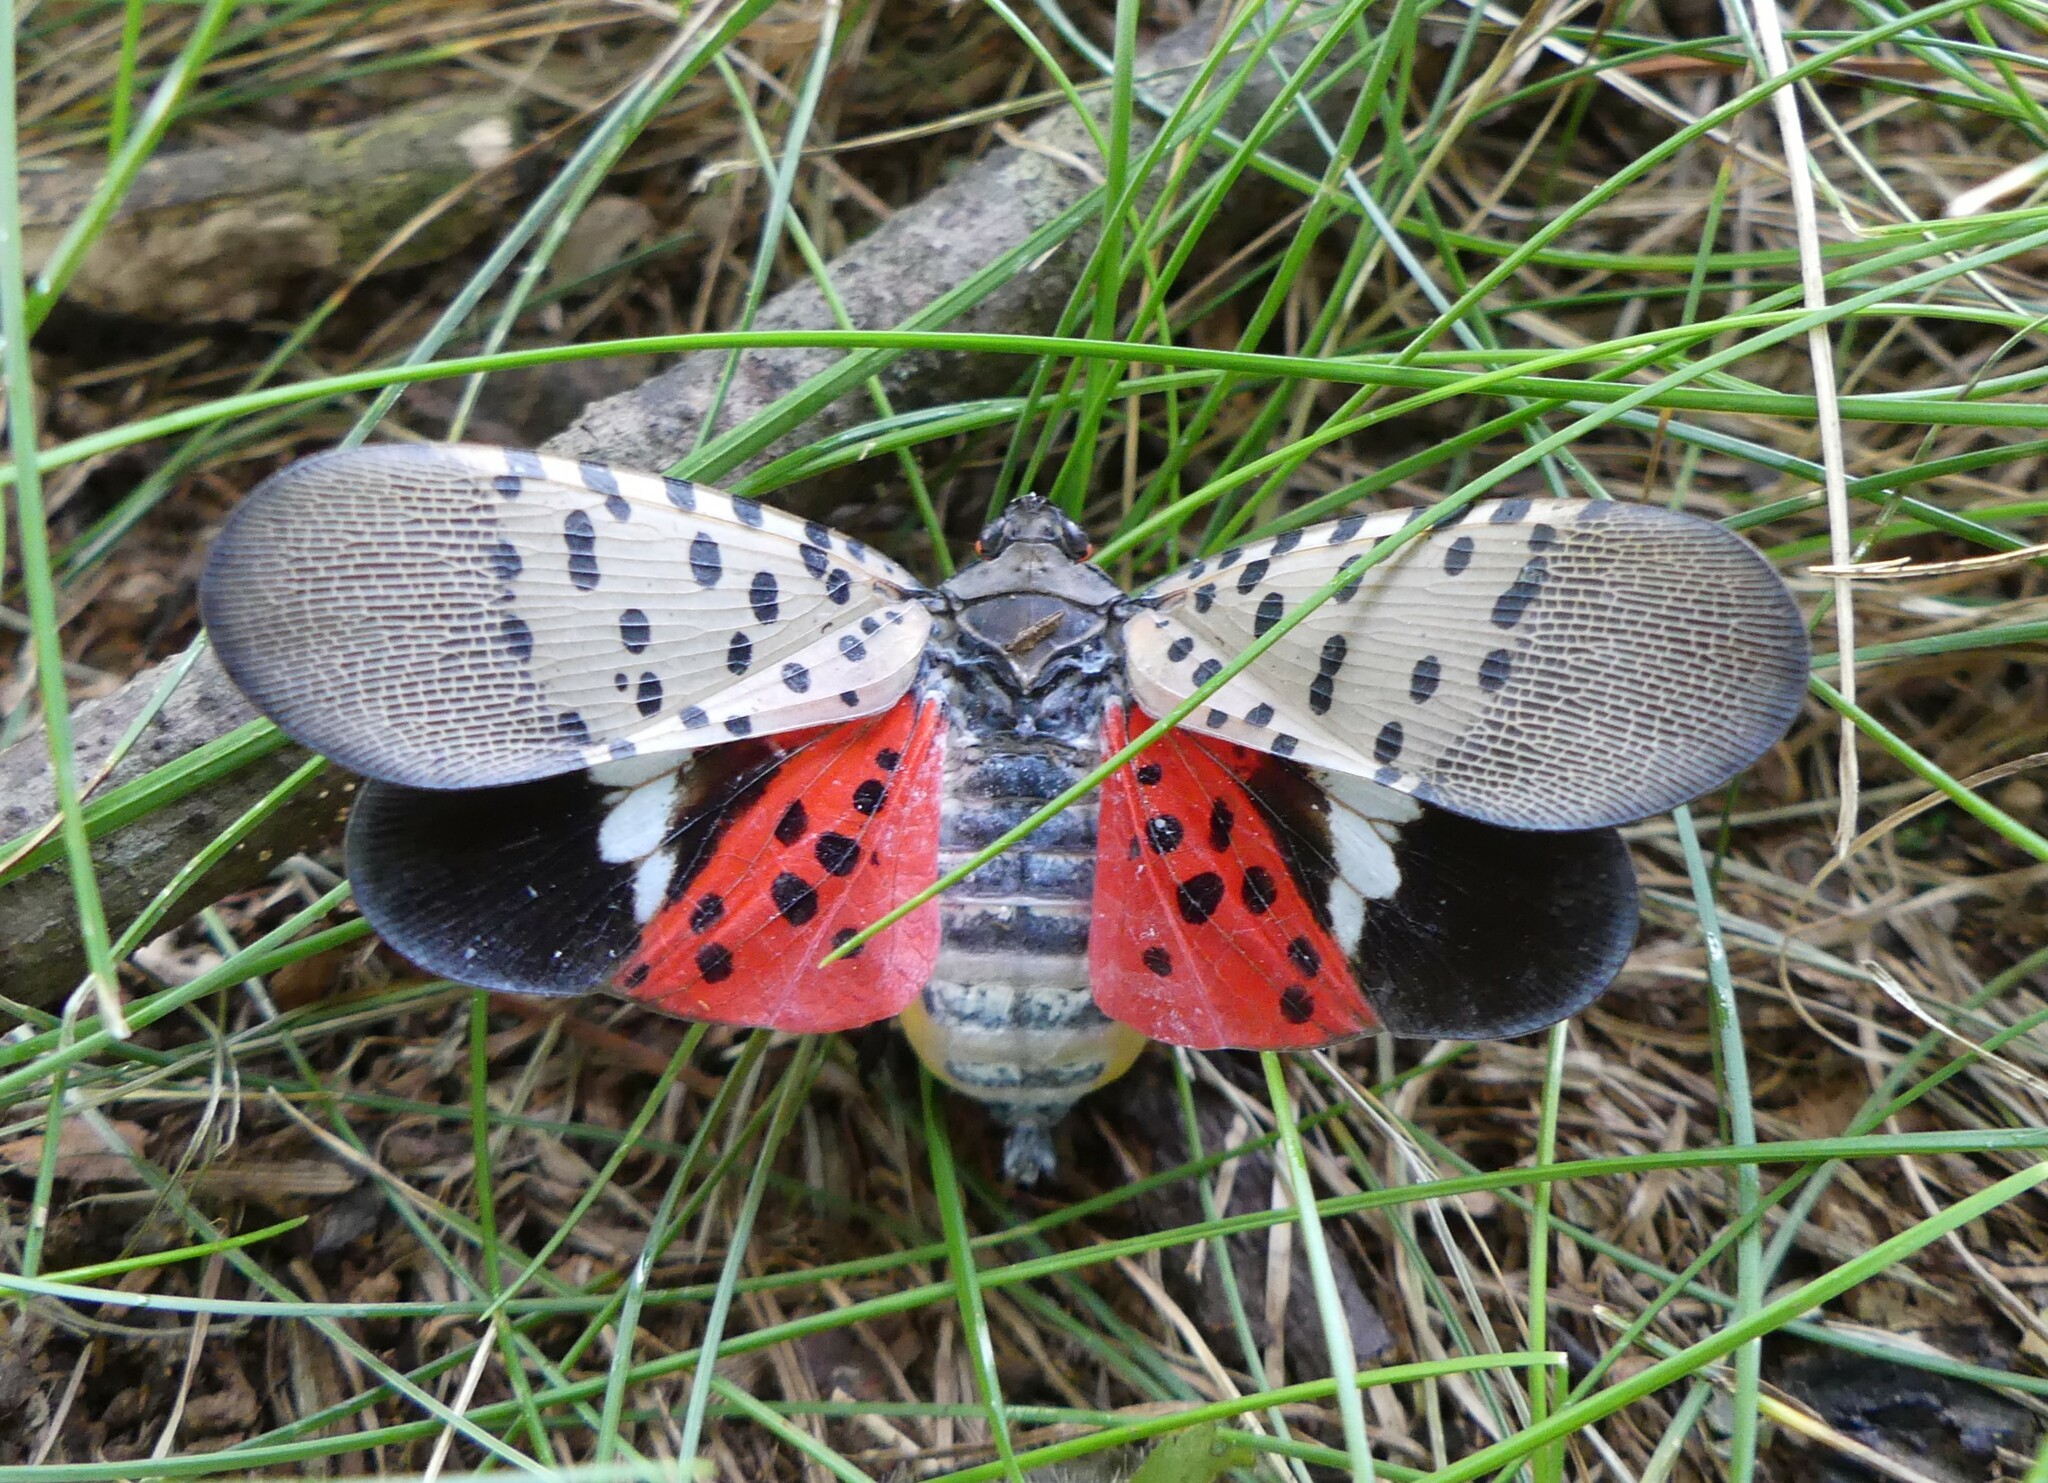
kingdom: Animalia
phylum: Arthropoda
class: Insecta
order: Hemiptera
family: Fulgoridae
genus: Lycorma
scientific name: Lycorma delicatula
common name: Spotted lanternfly
